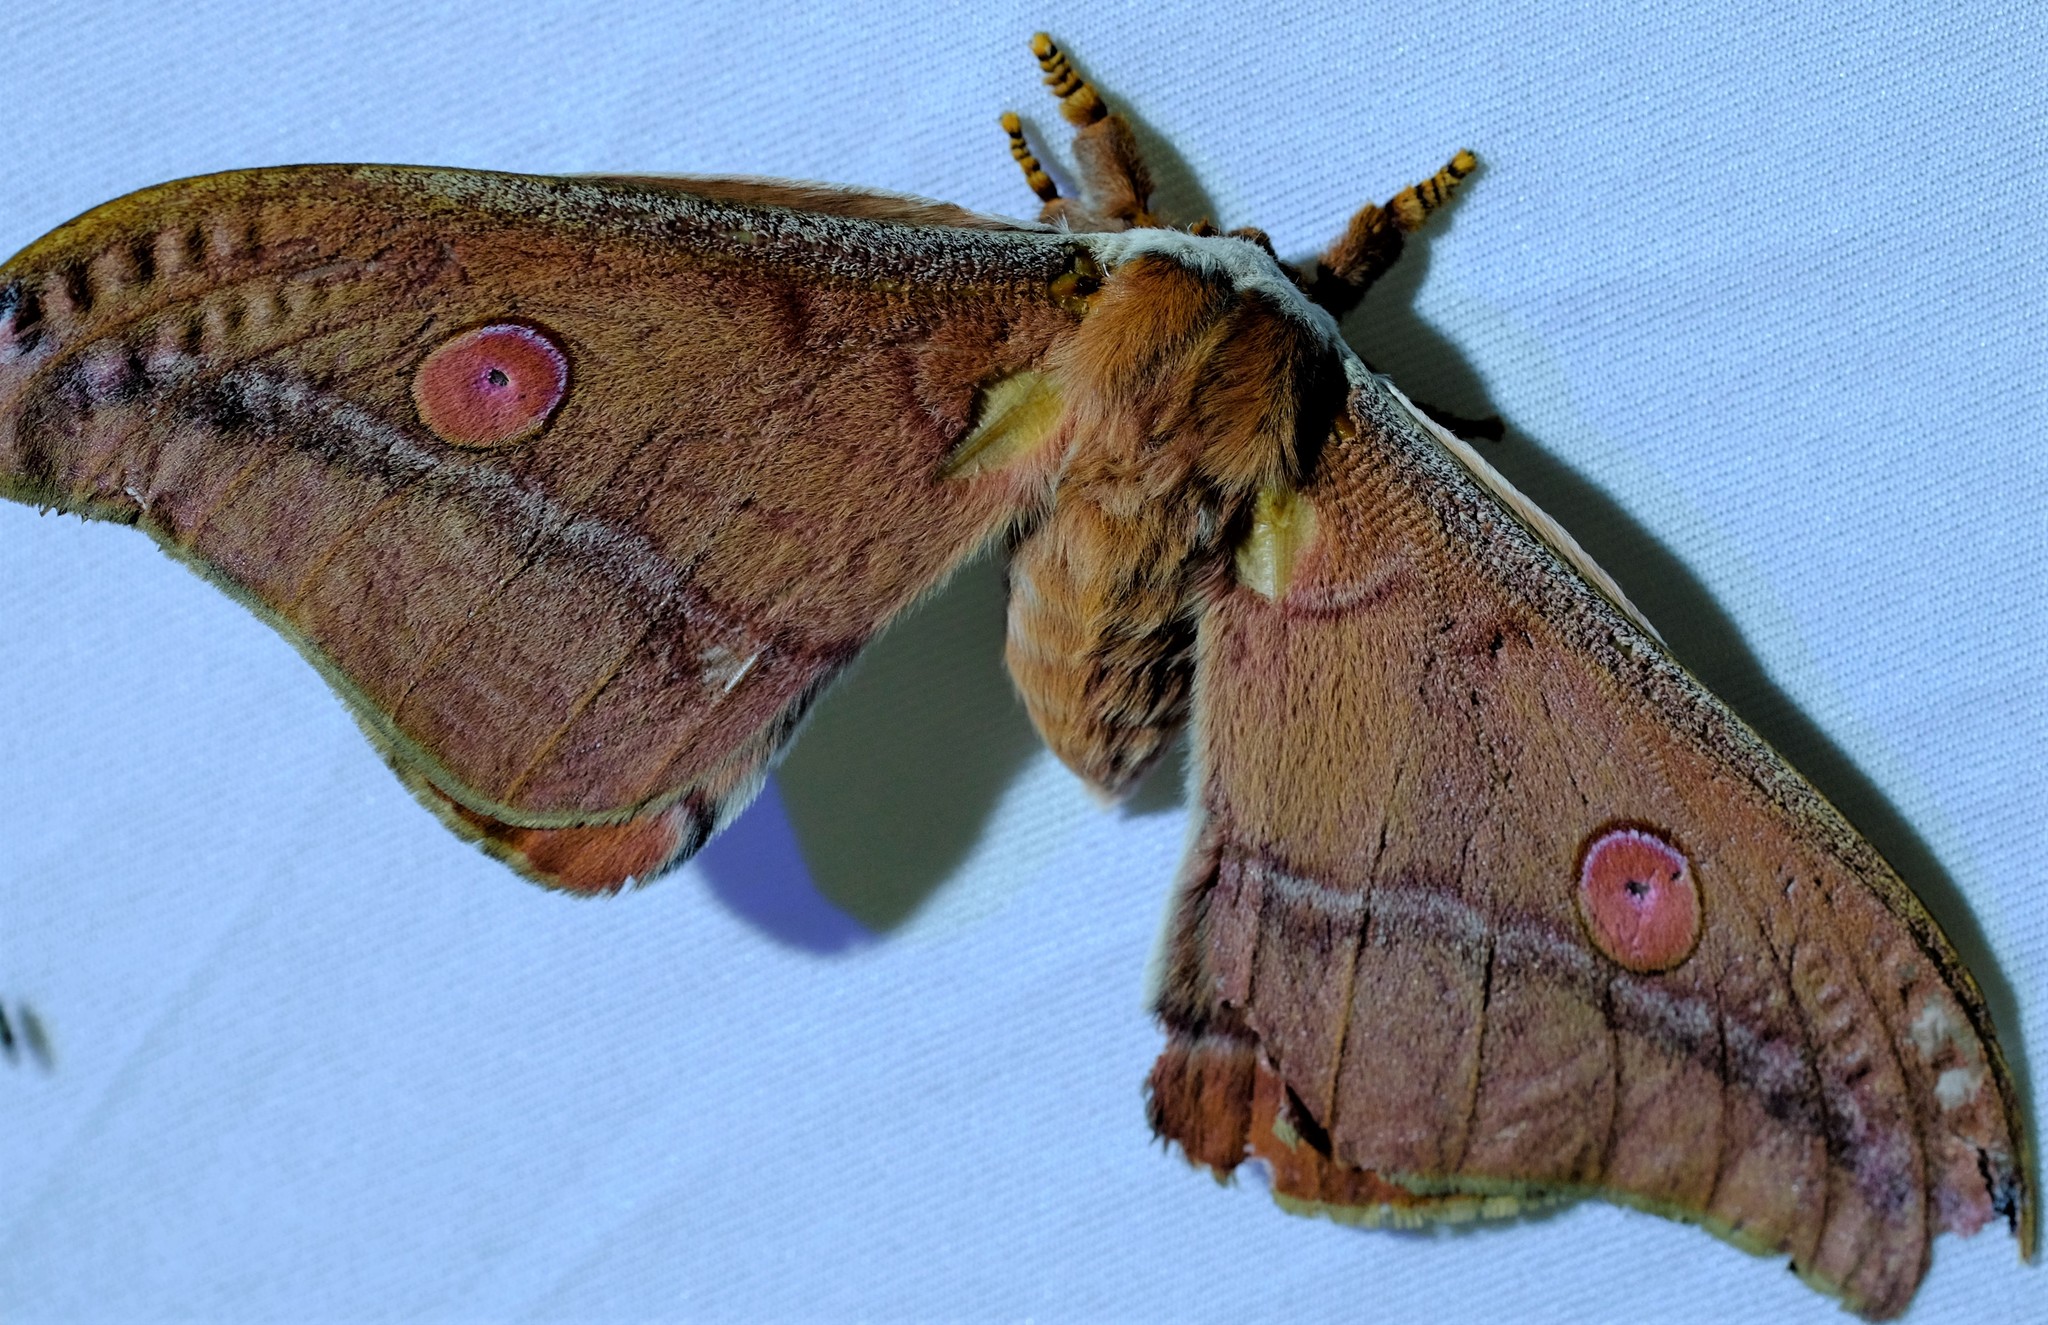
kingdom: Animalia
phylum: Arthropoda
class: Insecta
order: Lepidoptera
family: Saturniidae
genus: Opodiphthera
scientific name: Opodiphthera
